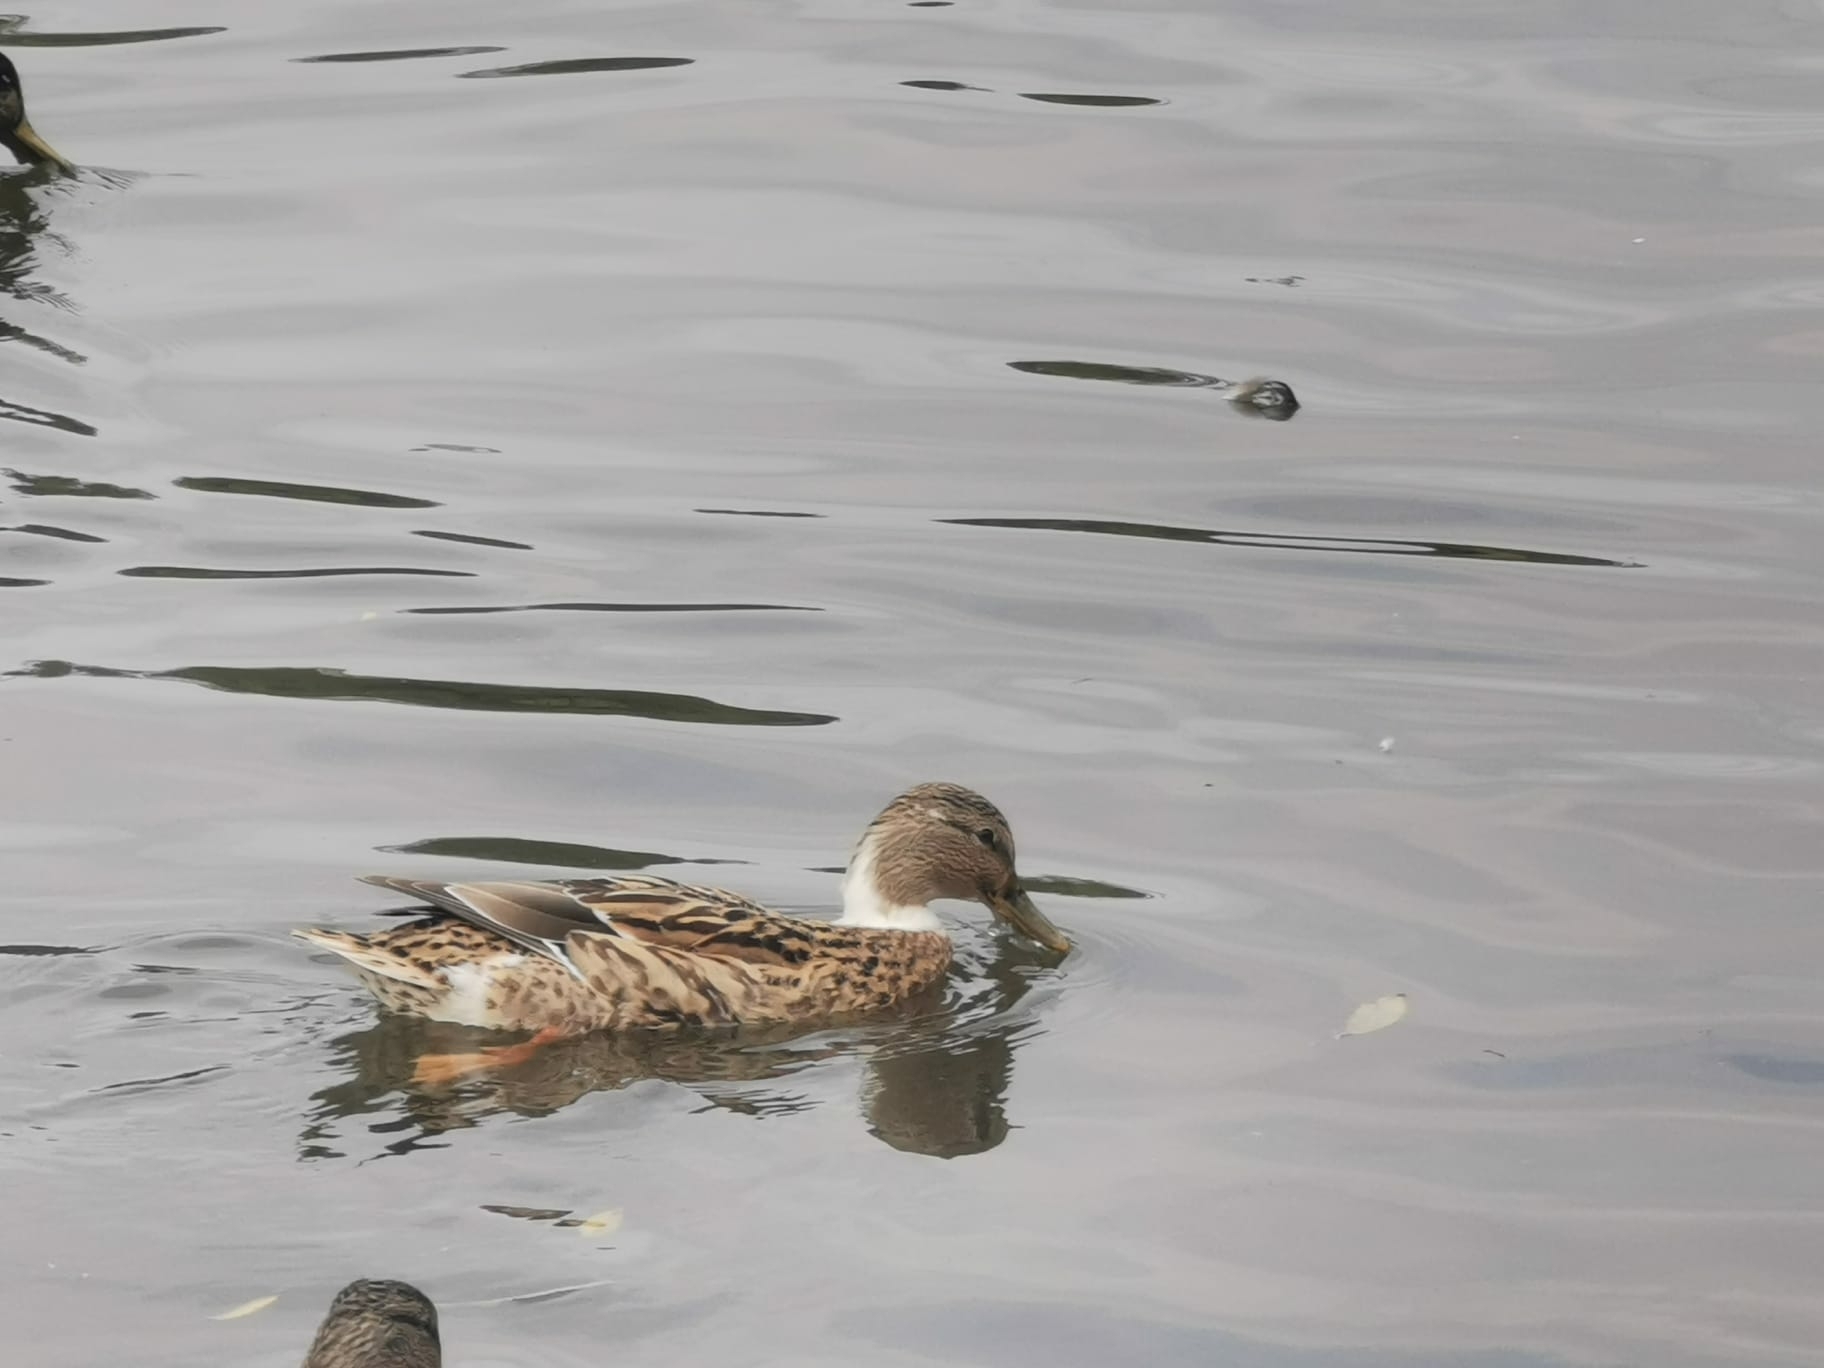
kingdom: Animalia
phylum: Chordata
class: Aves
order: Anseriformes
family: Anatidae
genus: Anas
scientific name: Anas platyrhynchos
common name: Mallard
